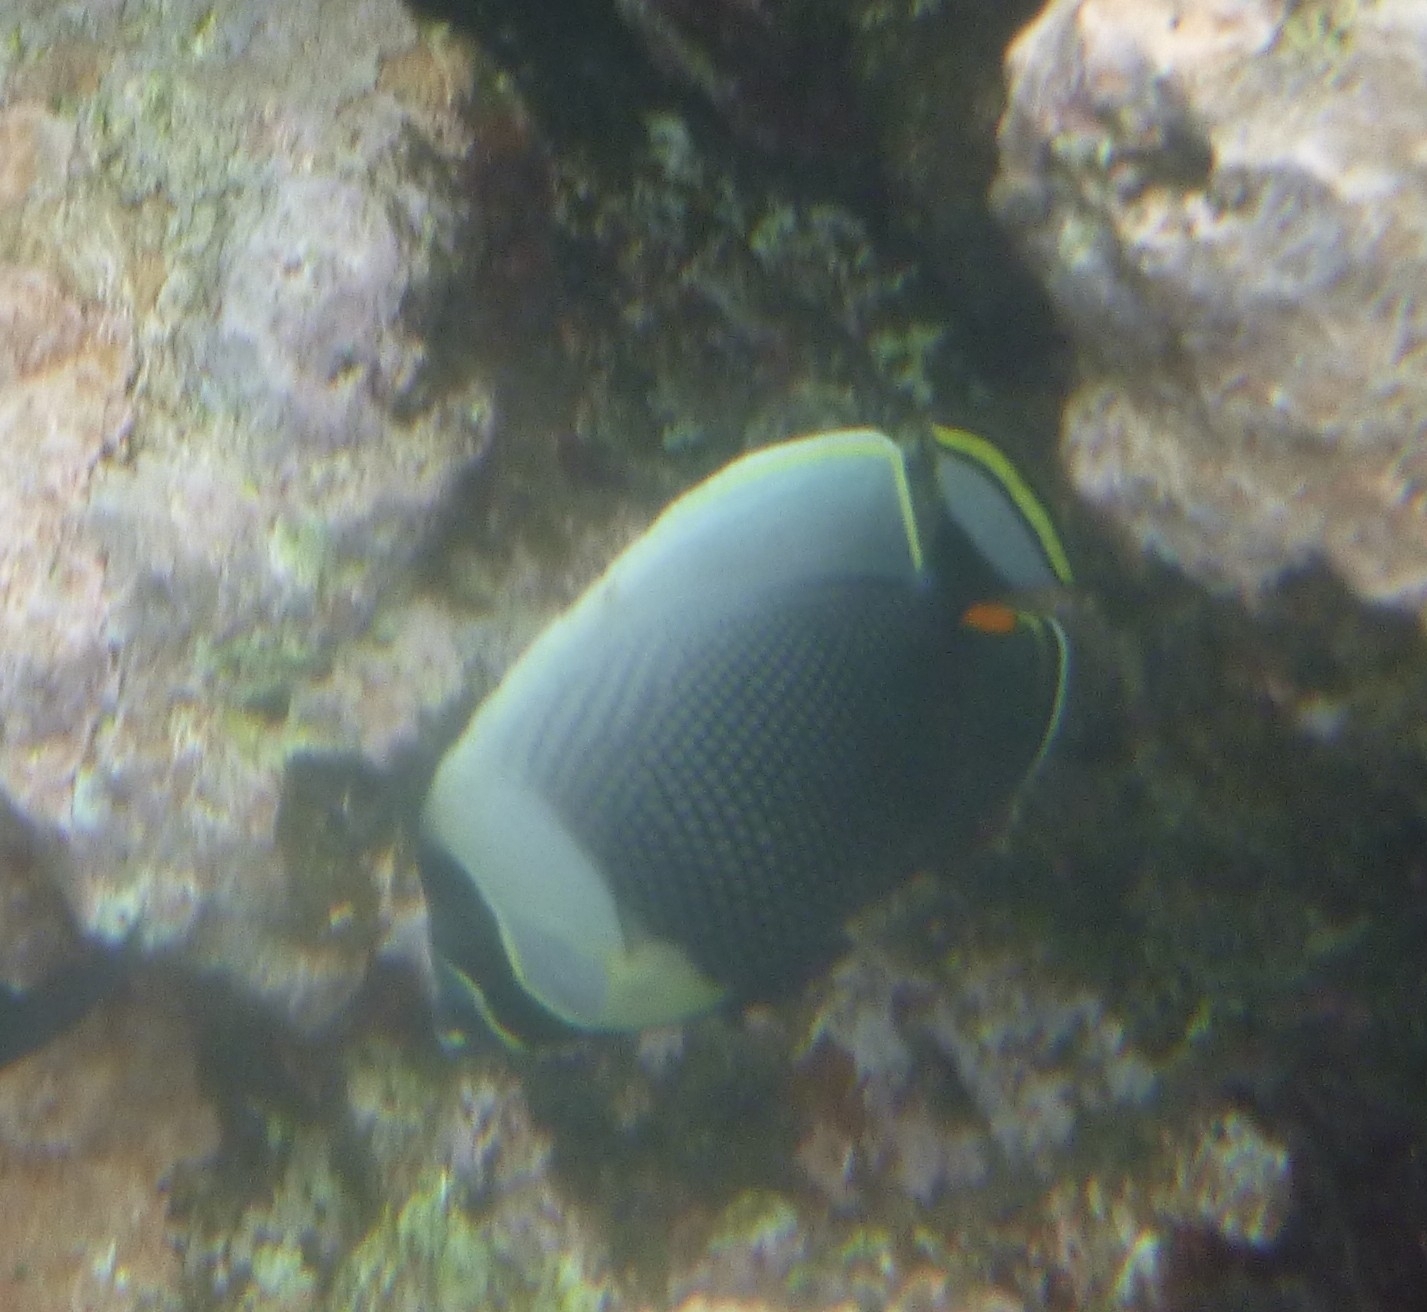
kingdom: Animalia
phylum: Chordata
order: Perciformes
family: Chaetodontidae
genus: Chaetodon
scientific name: Chaetodon reticulatus
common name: Reticulated butterflyfish
